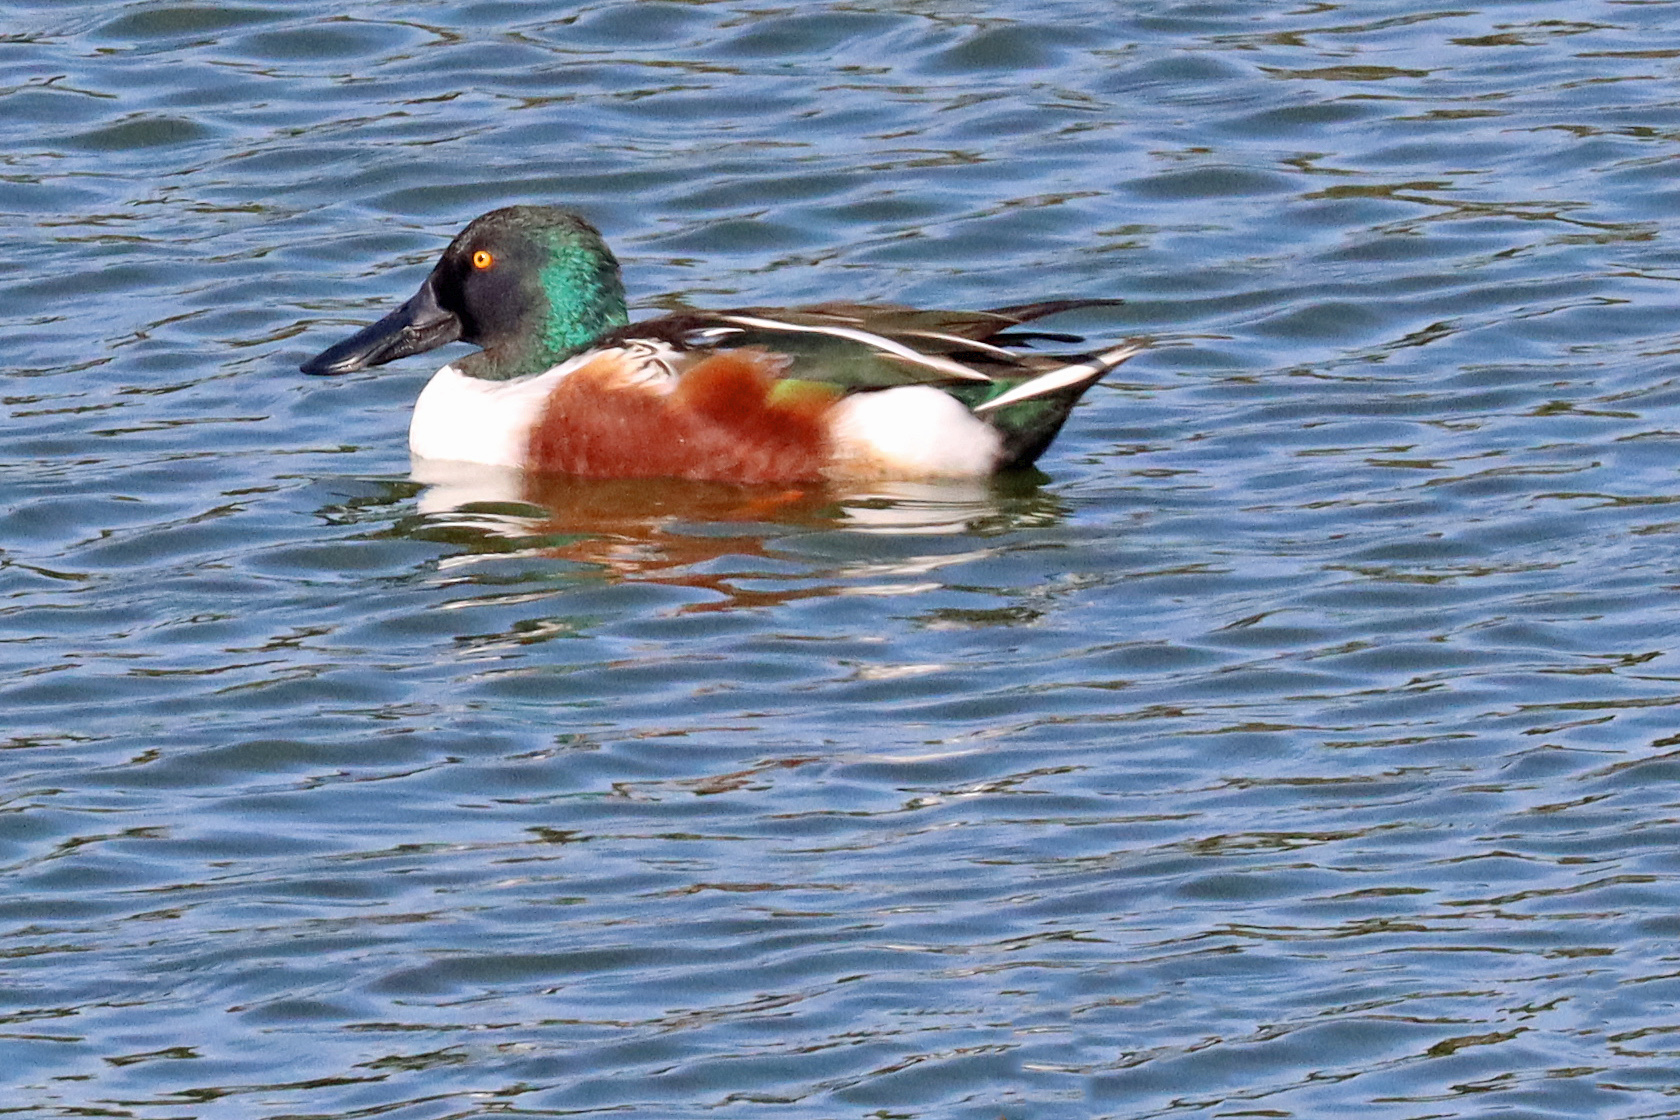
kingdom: Animalia
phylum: Chordata
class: Aves
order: Anseriformes
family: Anatidae
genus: Spatula
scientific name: Spatula clypeata
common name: Northern shoveler
